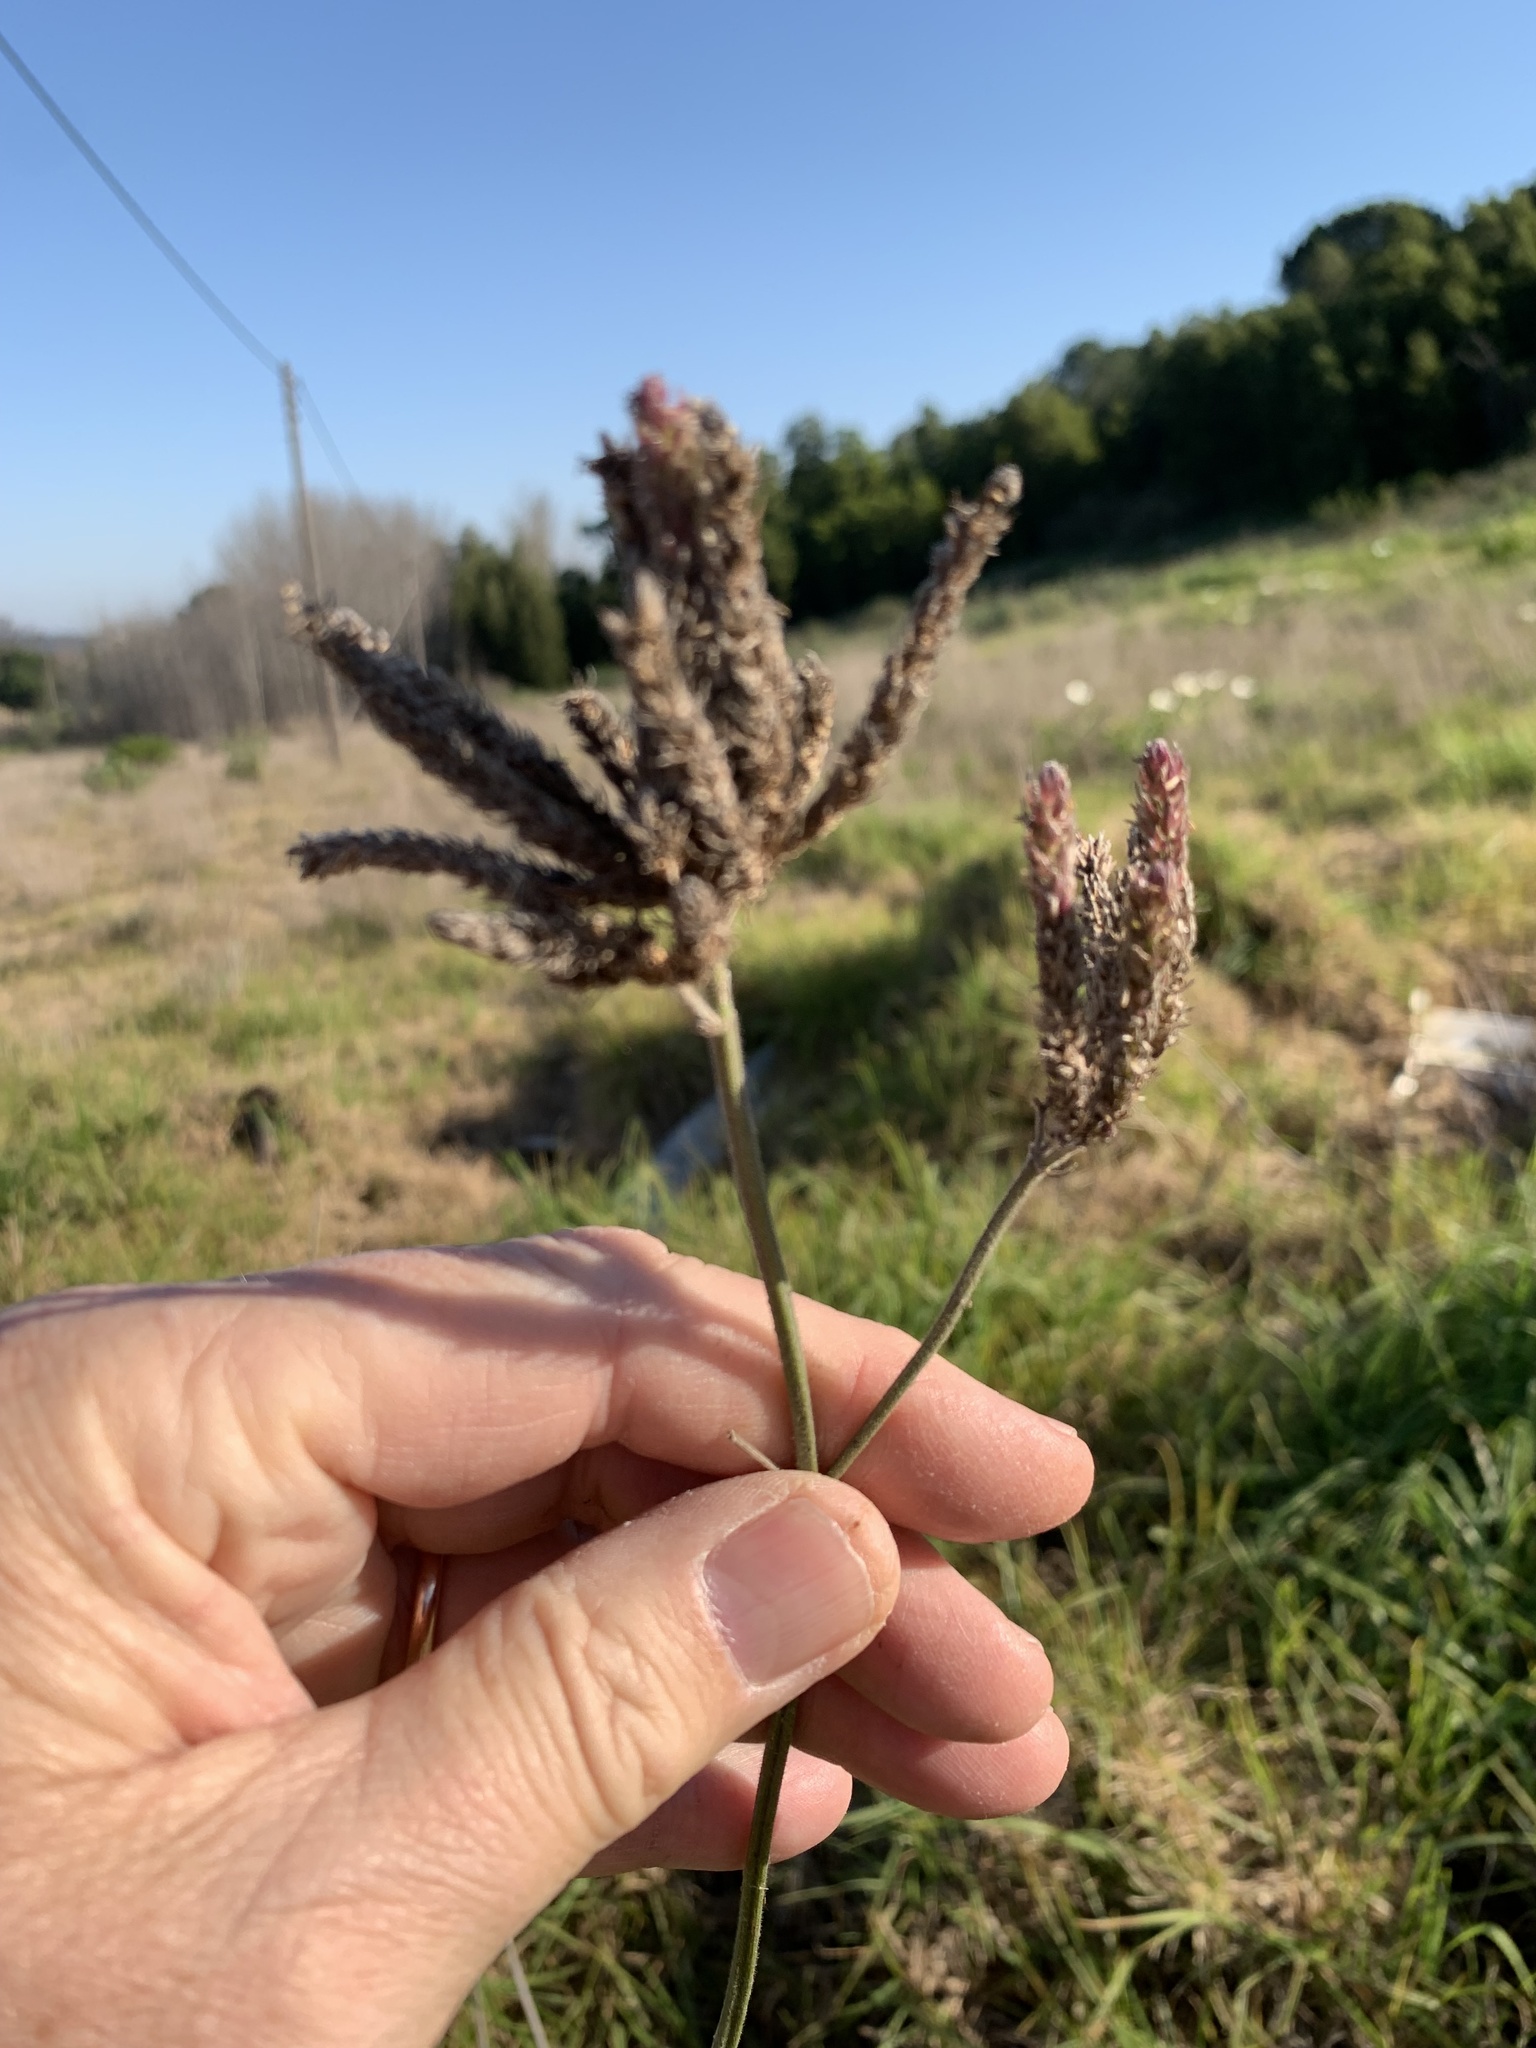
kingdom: Plantae
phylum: Tracheophyta
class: Magnoliopsida
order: Lamiales
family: Verbenaceae
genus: Verbena
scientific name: Verbena bonariensis
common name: Purpletop vervain
